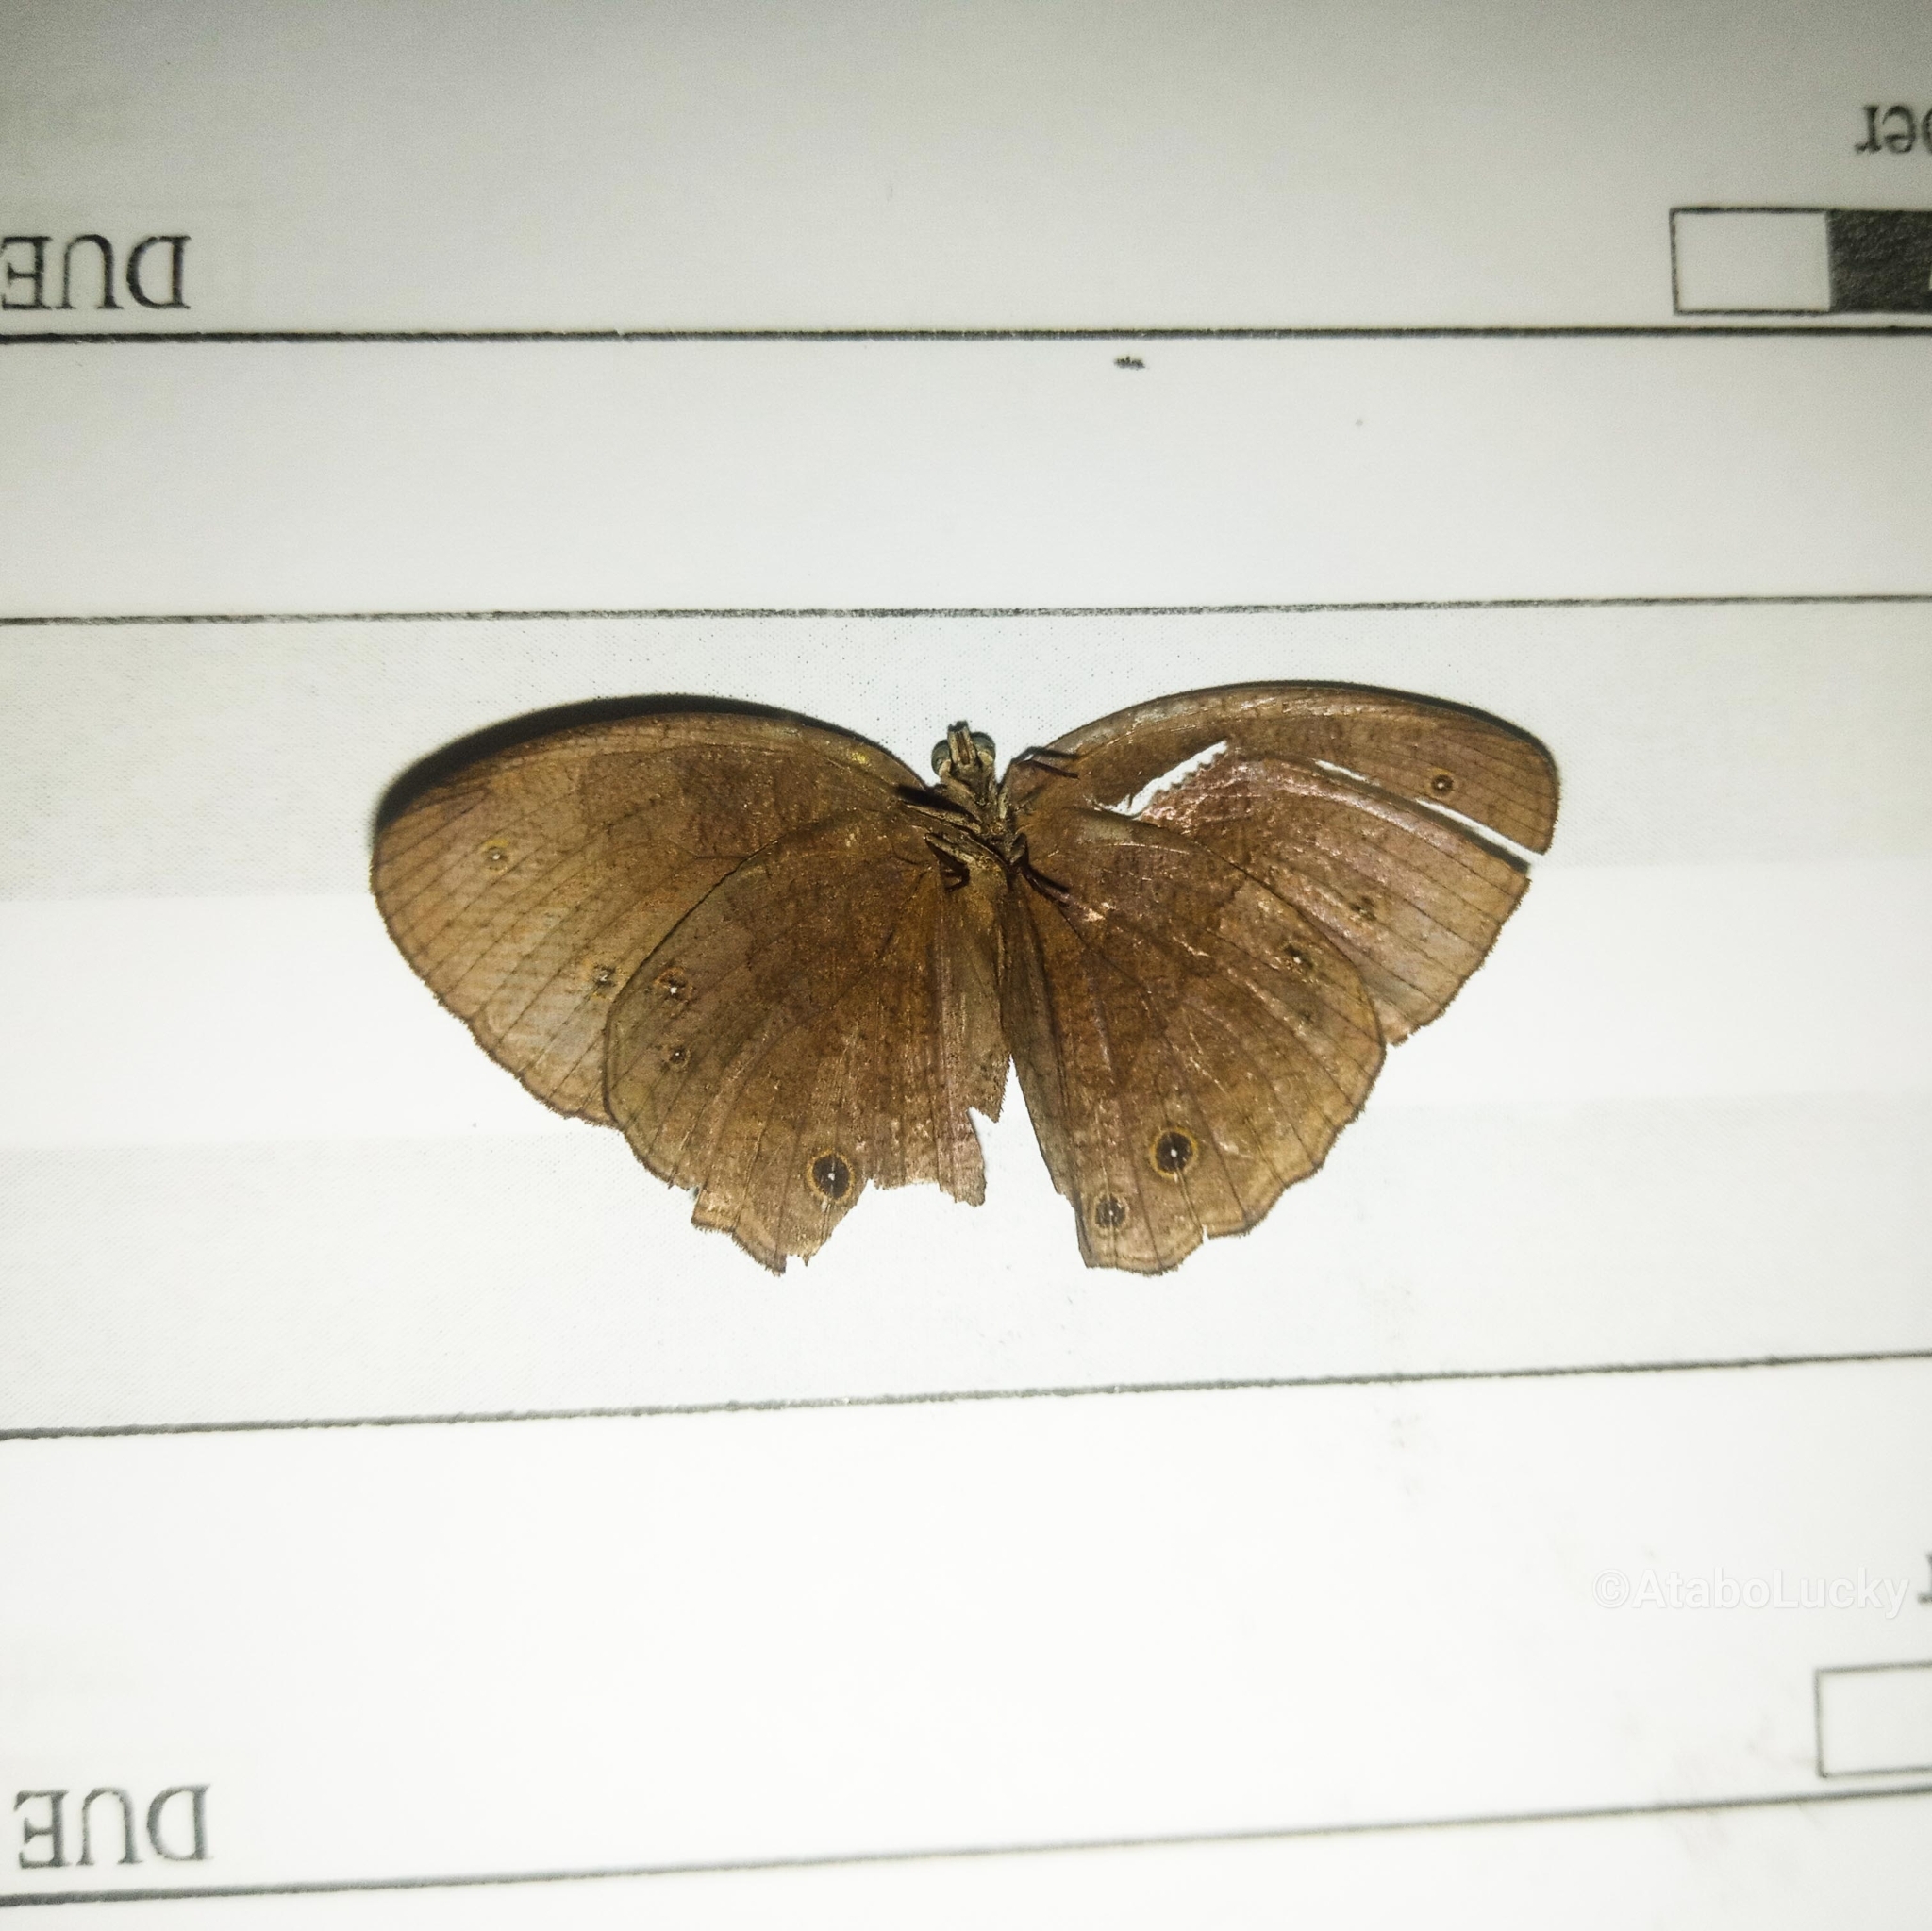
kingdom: Animalia
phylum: Arthropoda
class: Insecta
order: Lepidoptera
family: Nymphalidae
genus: Mycalesis
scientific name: Mycalesis sandace
